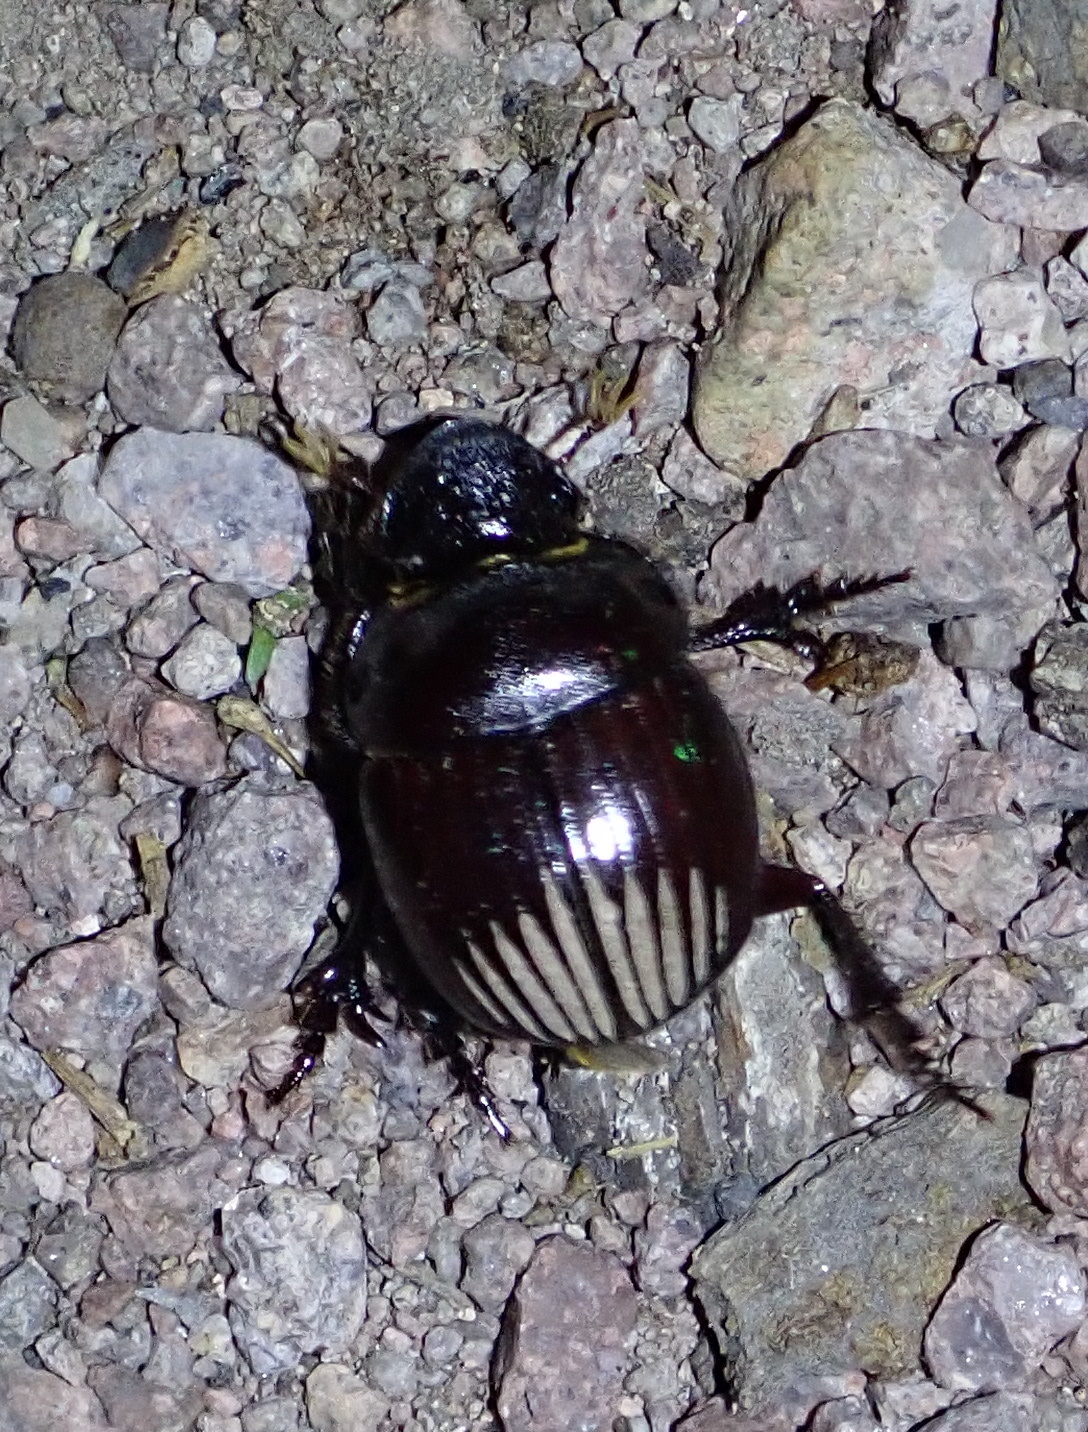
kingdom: Animalia
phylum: Arthropoda
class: Insecta
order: Coleoptera
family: Scarabaeidae
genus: Dichotomius
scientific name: Dichotomius colonicus
